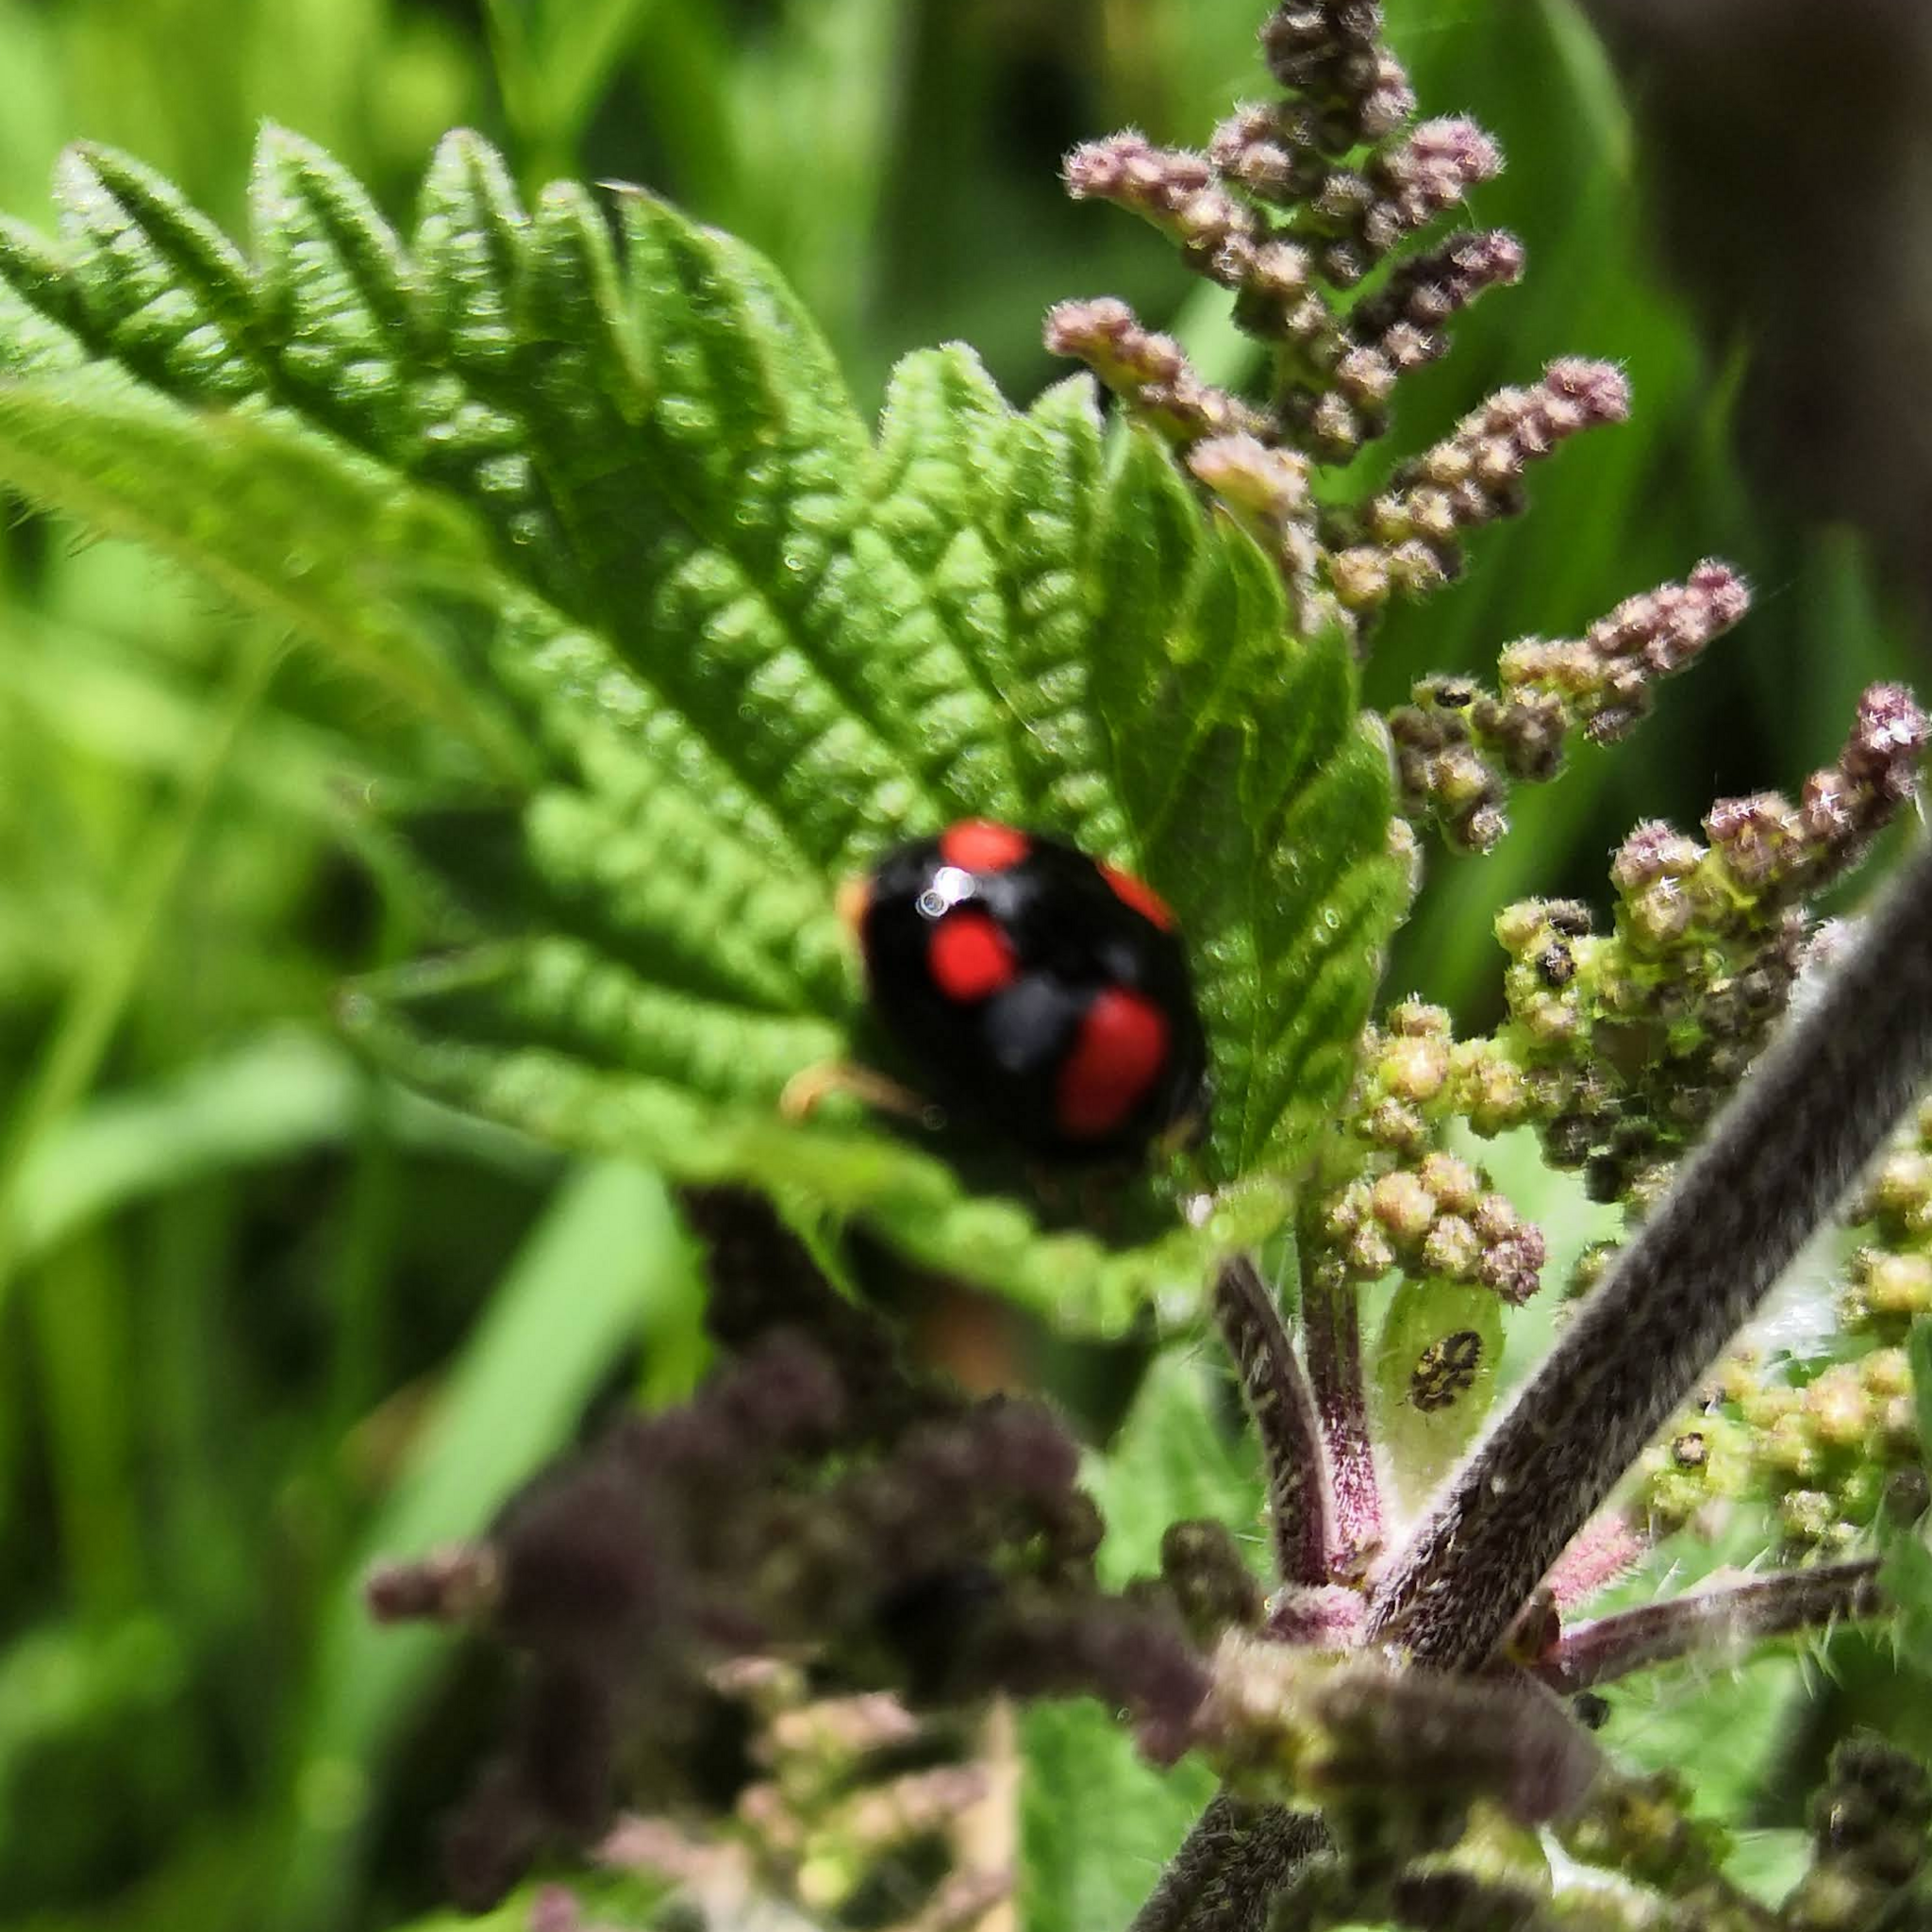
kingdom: Animalia
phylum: Arthropoda
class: Insecta
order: Coleoptera
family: Coccinellidae
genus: Harmonia
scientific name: Harmonia axyridis
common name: Harlequin ladybird
